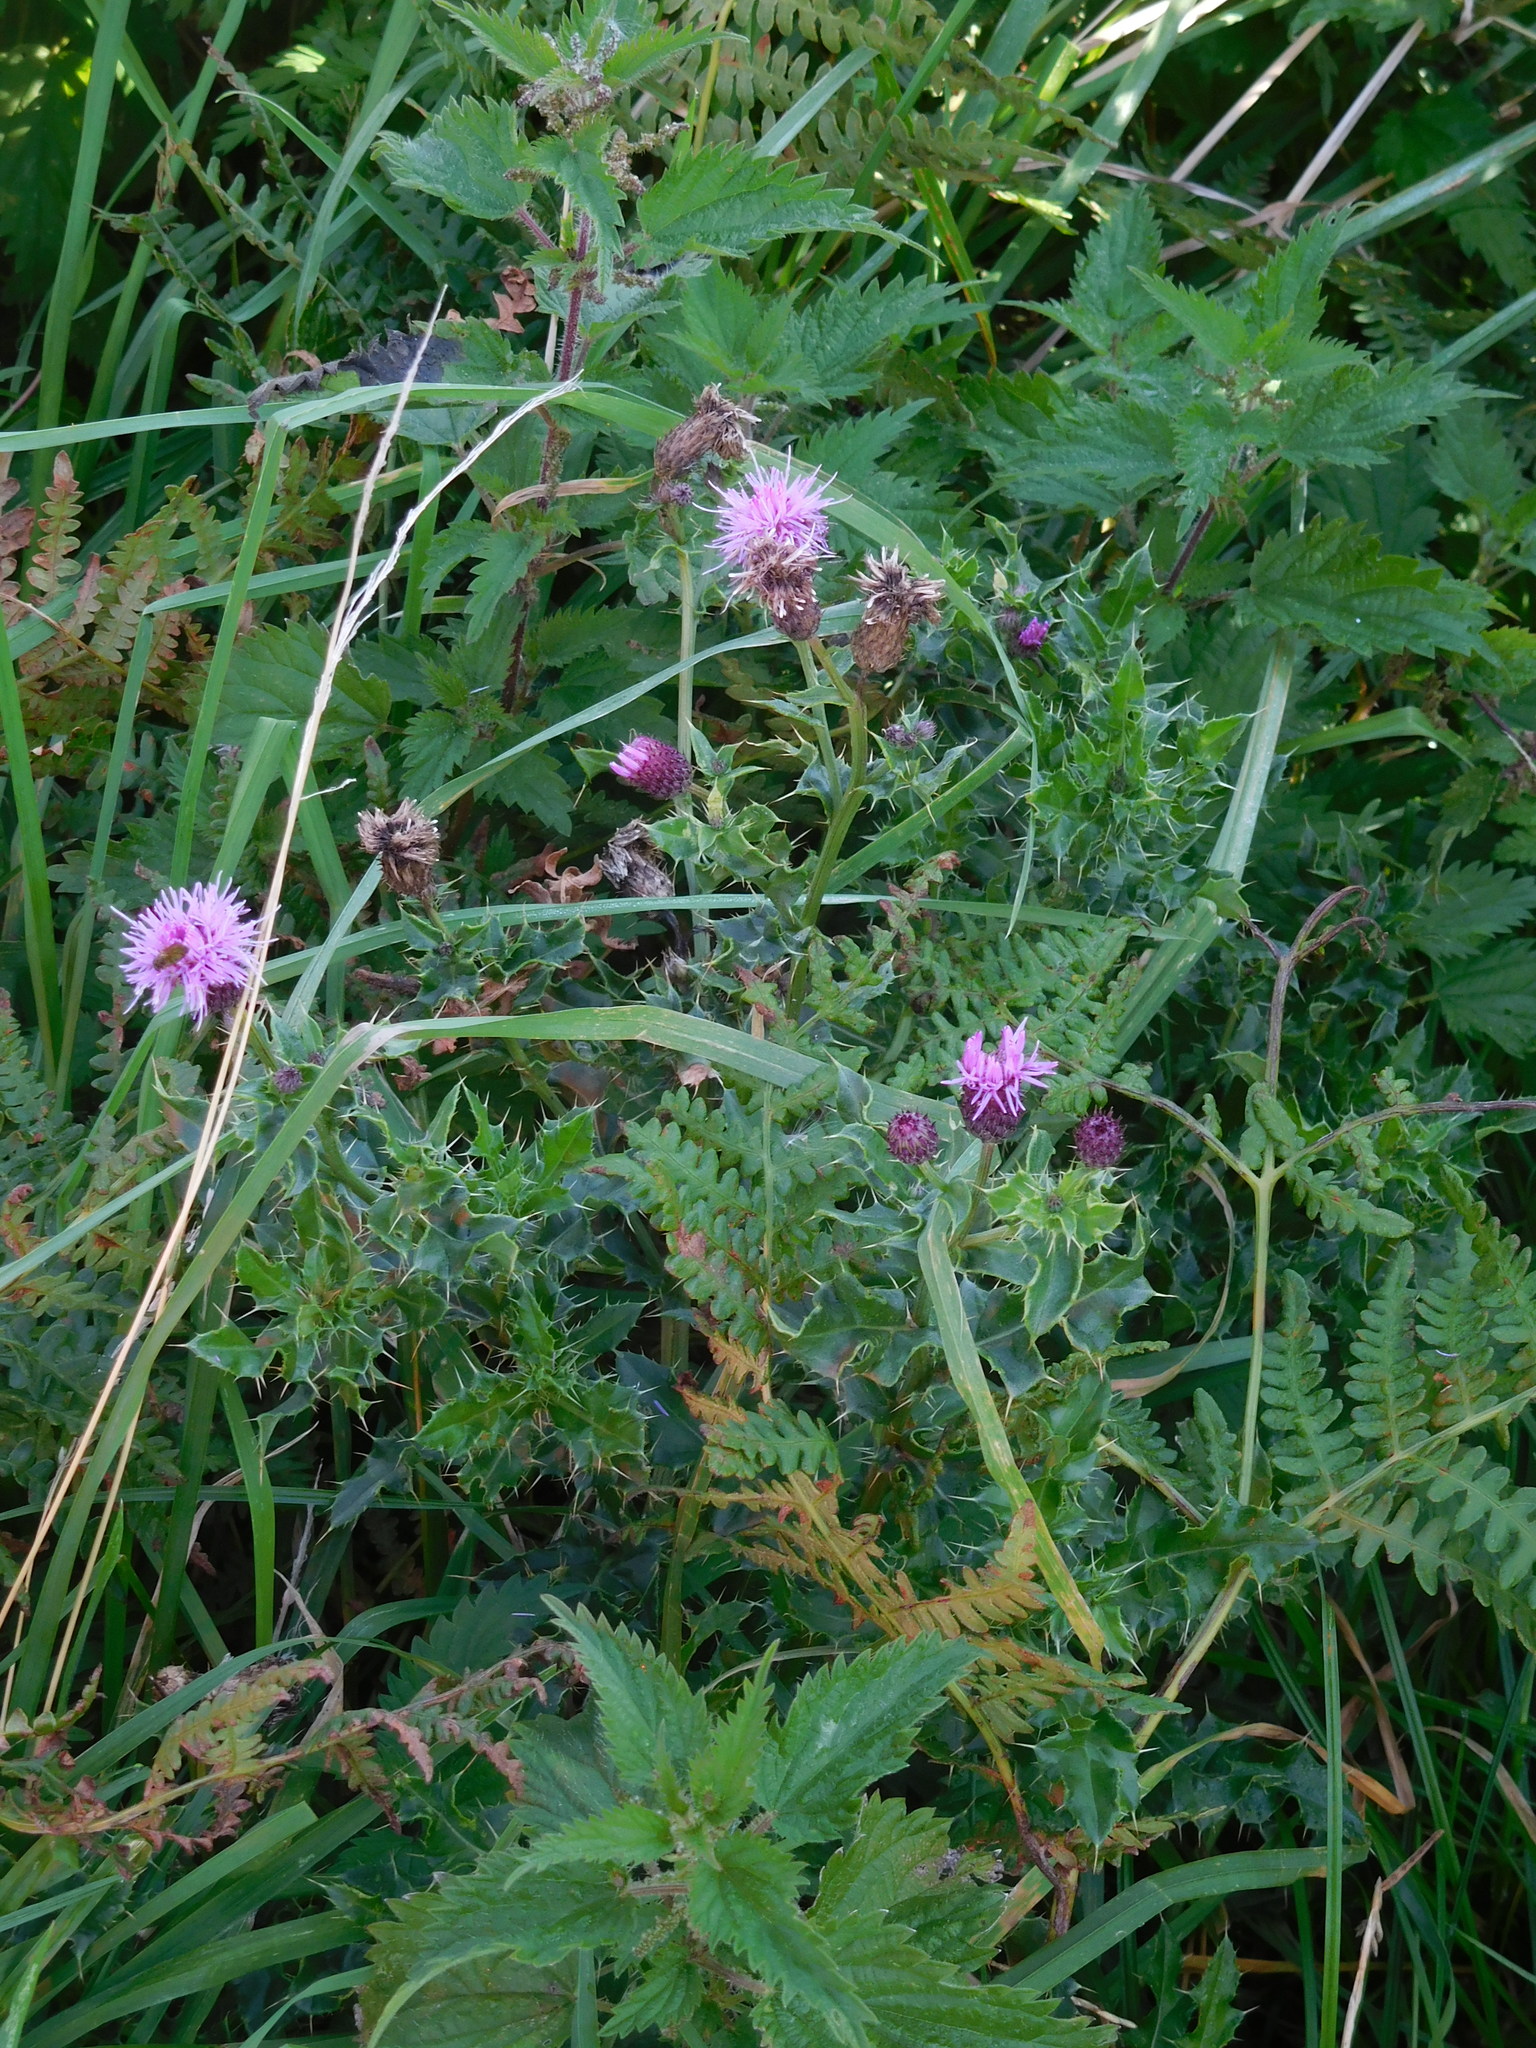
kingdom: Plantae
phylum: Tracheophyta
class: Magnoliopsida
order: Asterales
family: Asteraceae
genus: Cirsium
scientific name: Cirsium arvense
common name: Creeping thistle
